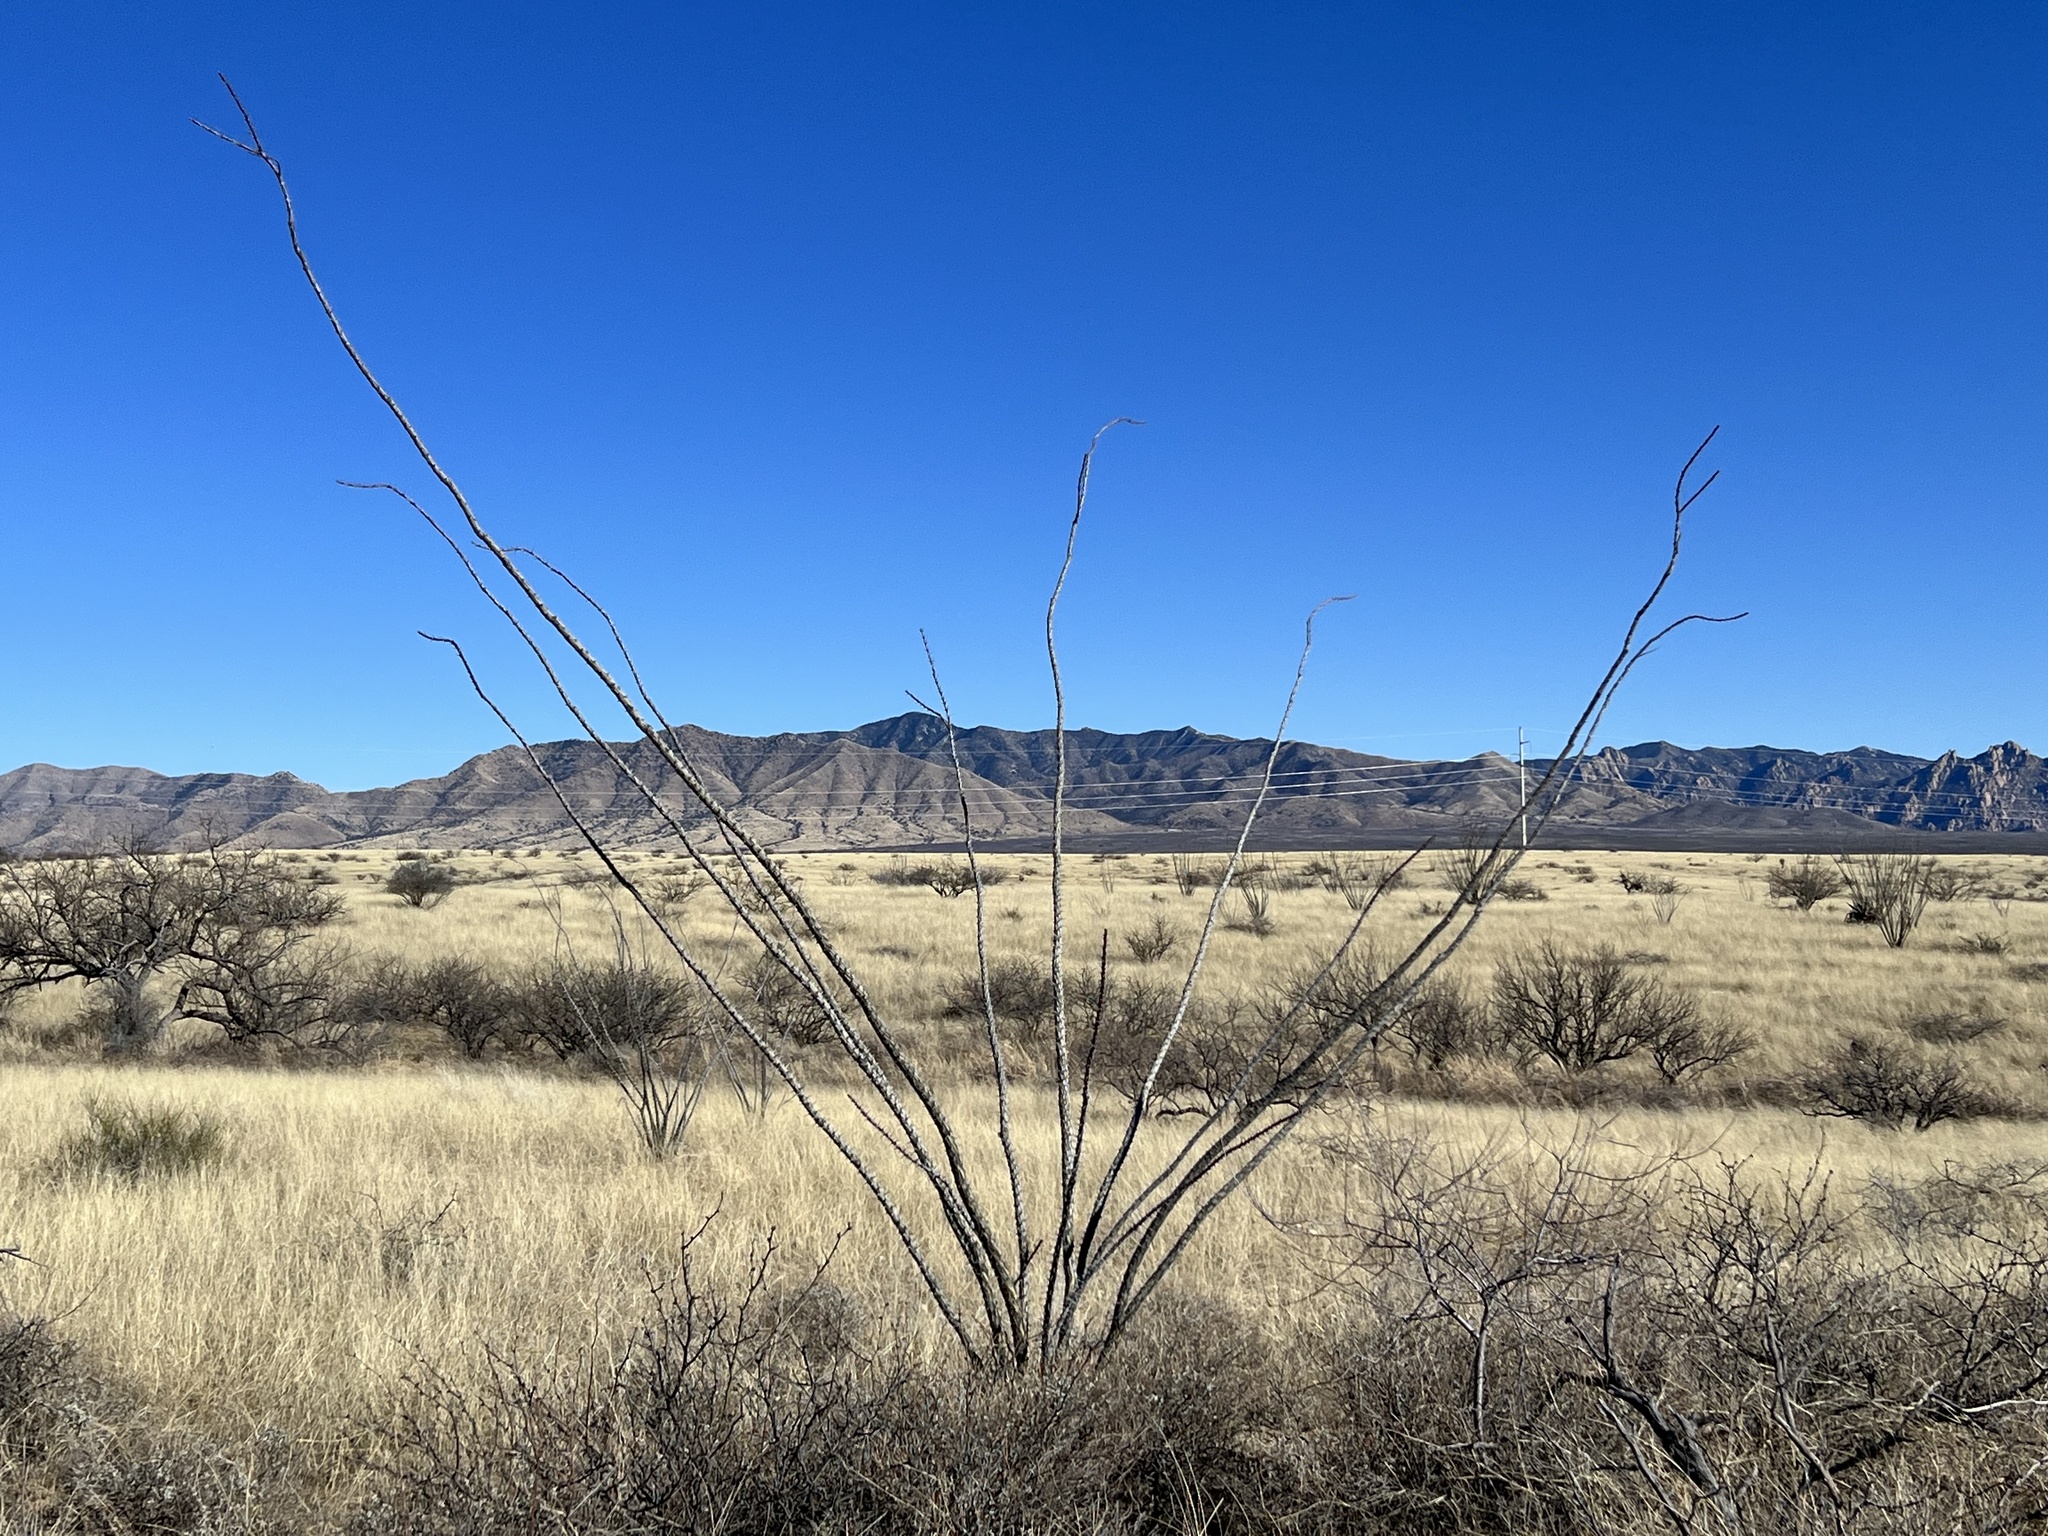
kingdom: Plantae
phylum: Tracheophyta
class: Magnoliopsida
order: Ericales
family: Fouquieriaceae
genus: Fouquieria
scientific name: Fouquieria splendens
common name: Vine-cactus
